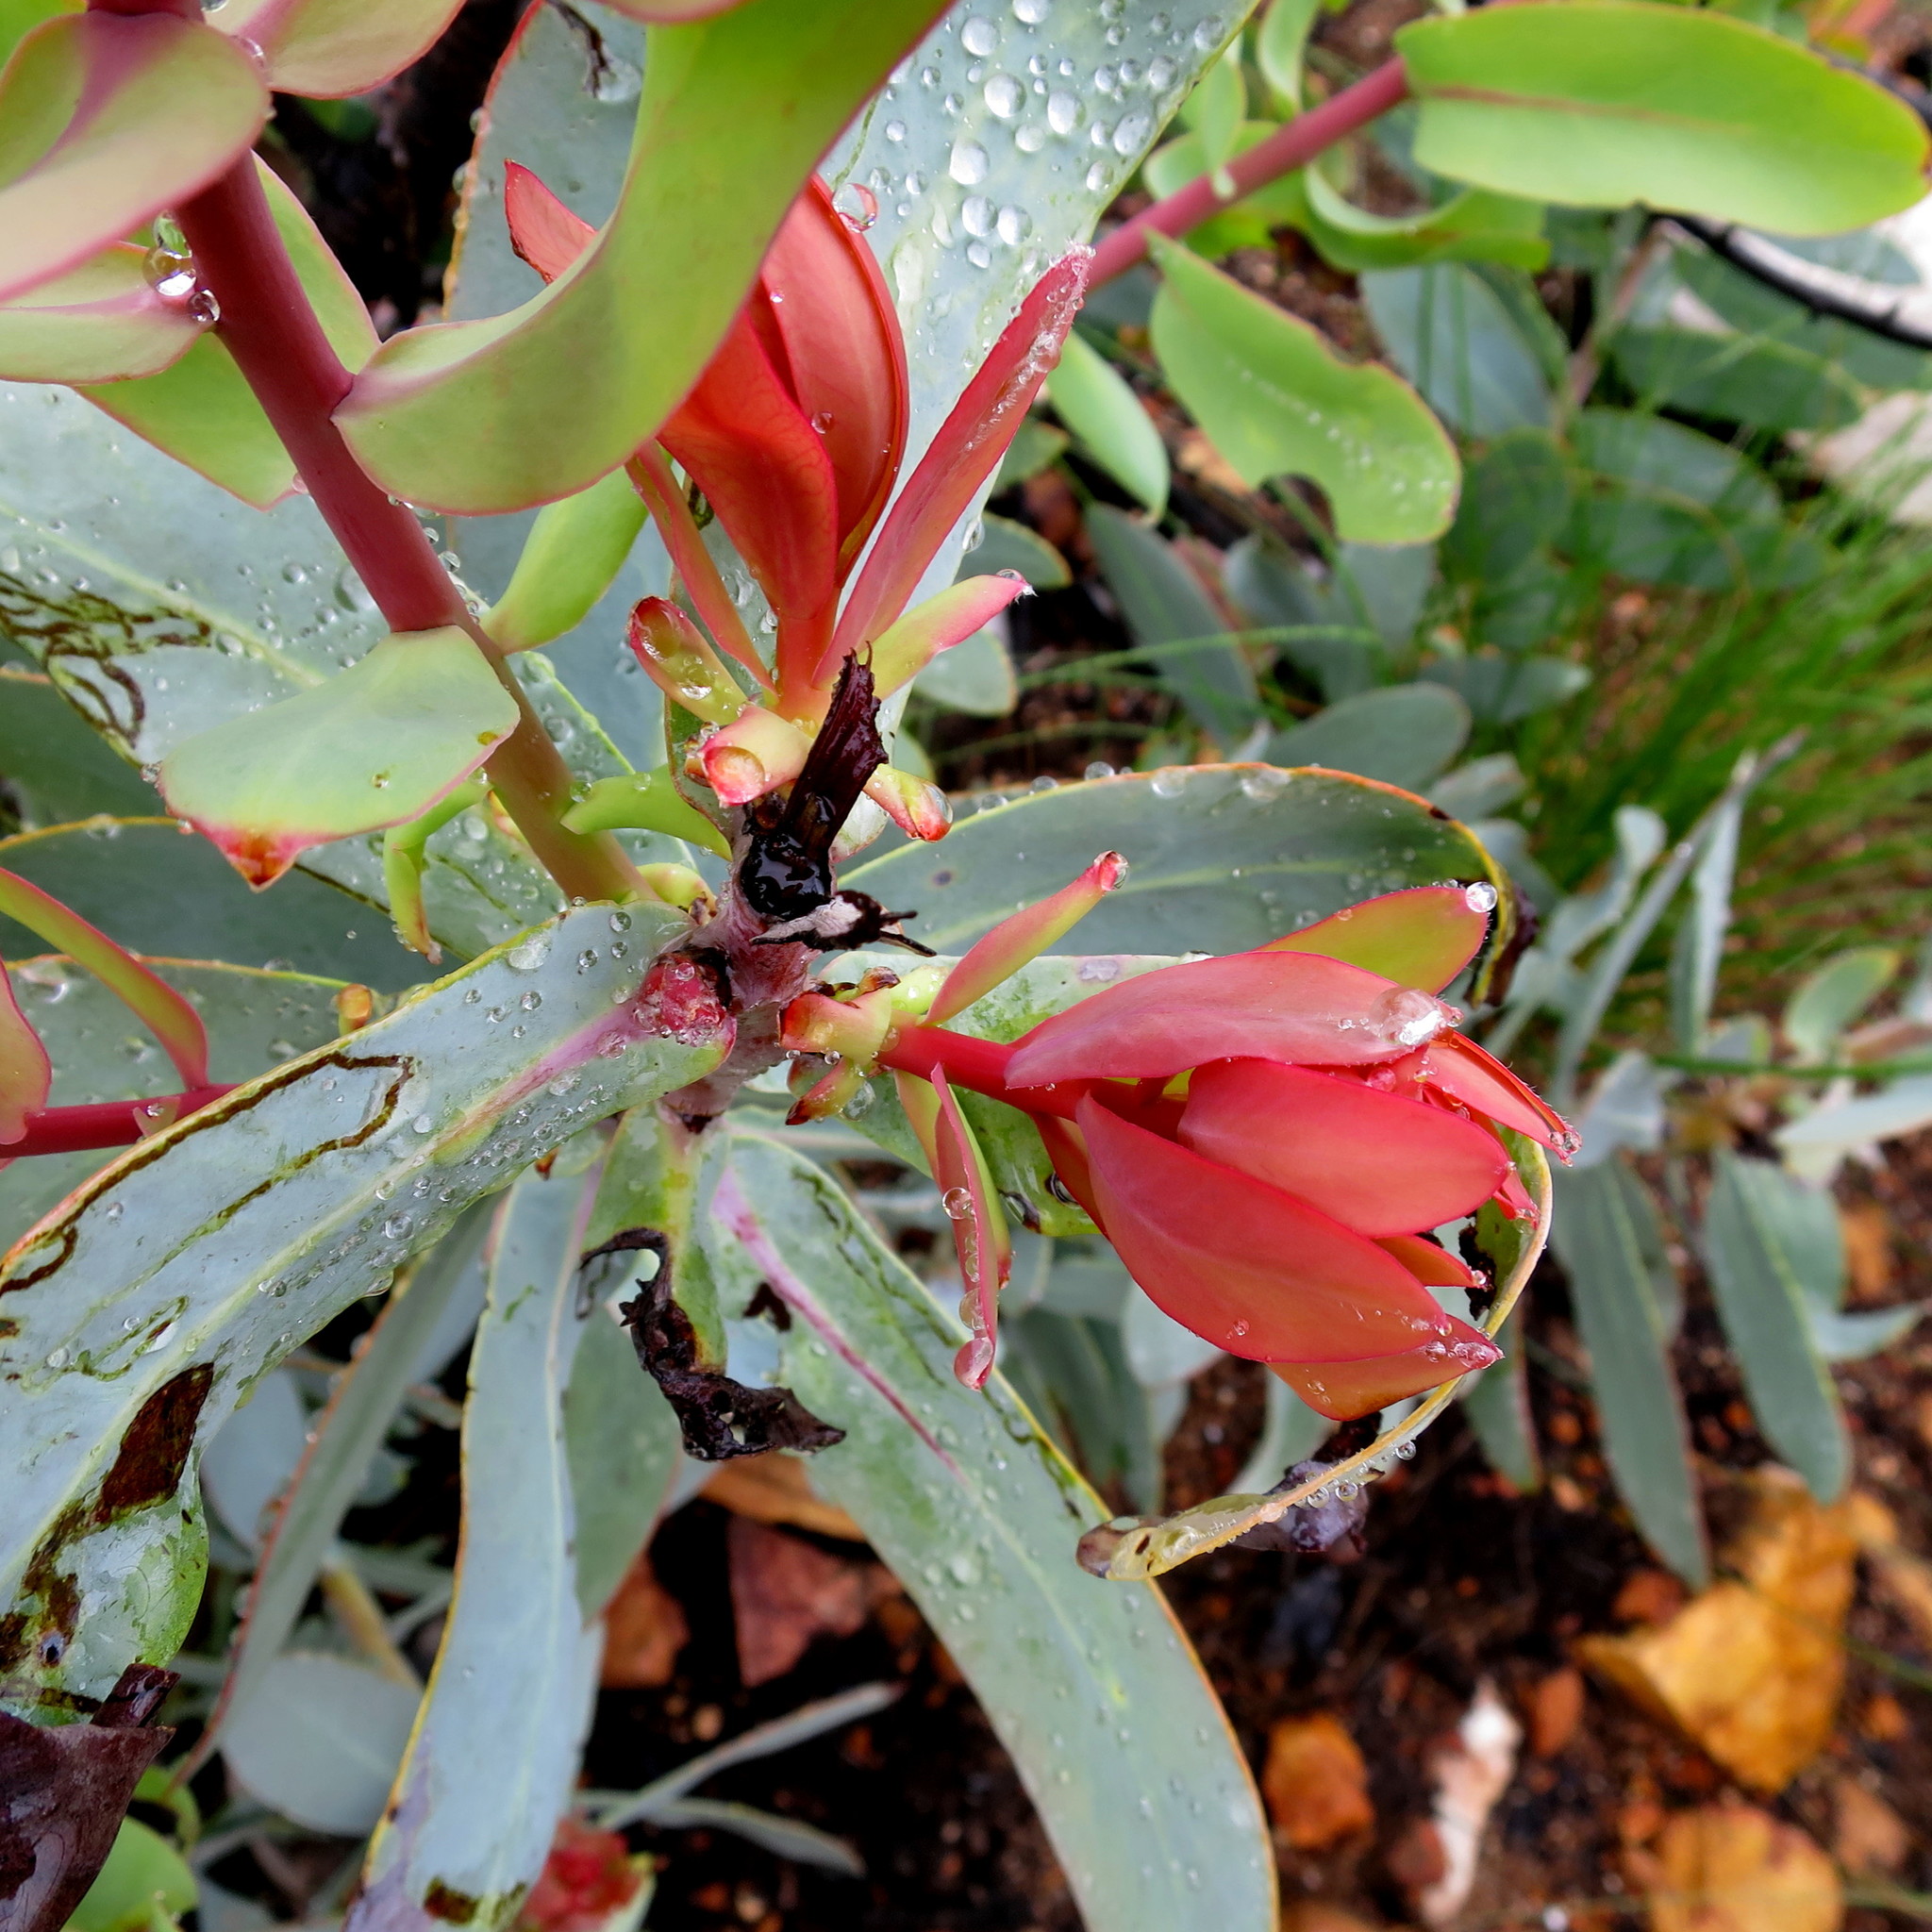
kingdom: Plantae
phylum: Tracheophyta
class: Magnoliopsida
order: Proteales
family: Proteaceae
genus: Protea
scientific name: Protea nitida
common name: Tree protea
